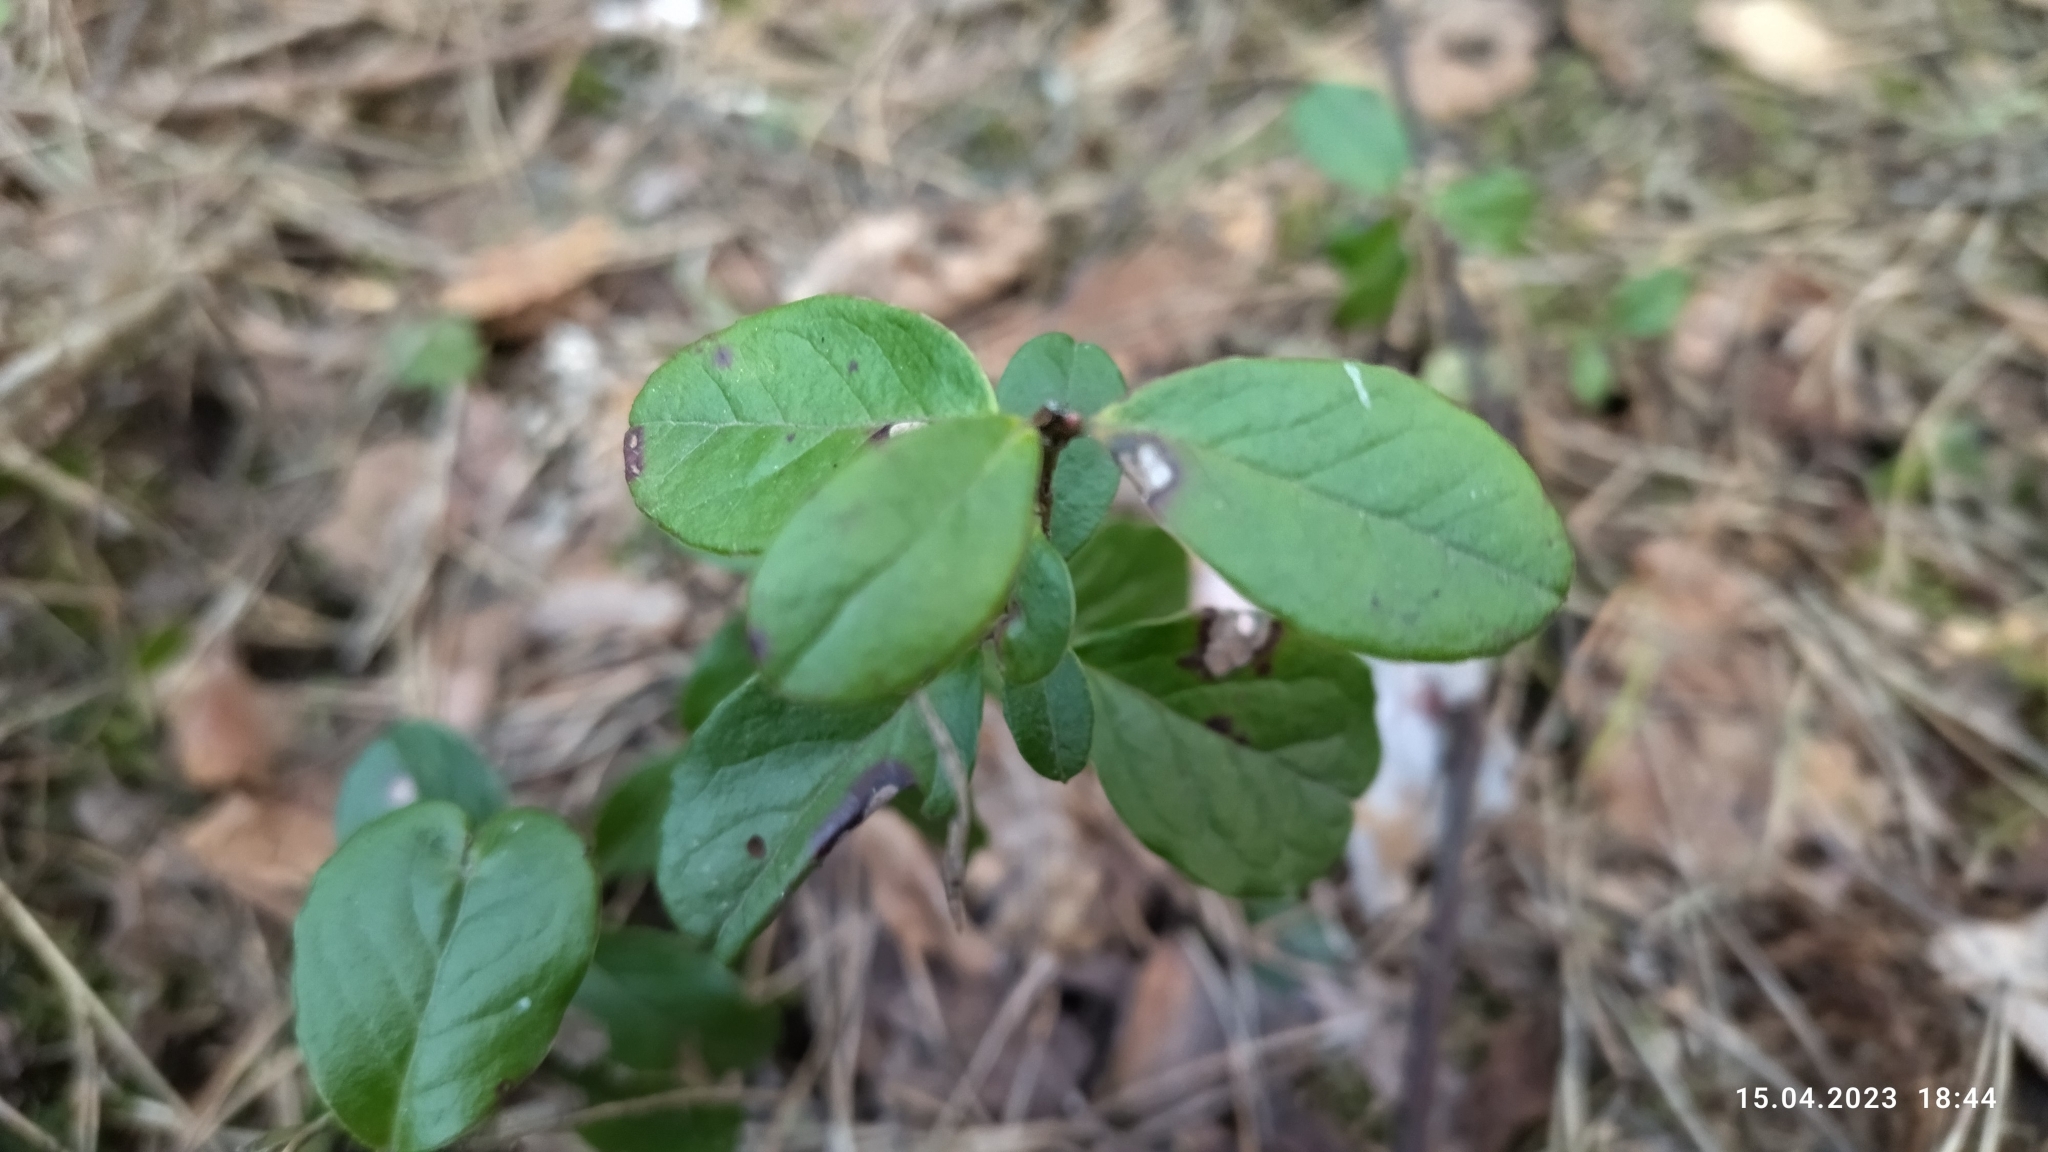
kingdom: Plantae
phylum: Tracheophyta
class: Magnoliopsida
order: Ericales
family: Ericaceae
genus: Vaccinium
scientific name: Vaccinium vitis-idaea
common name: Cowberry
